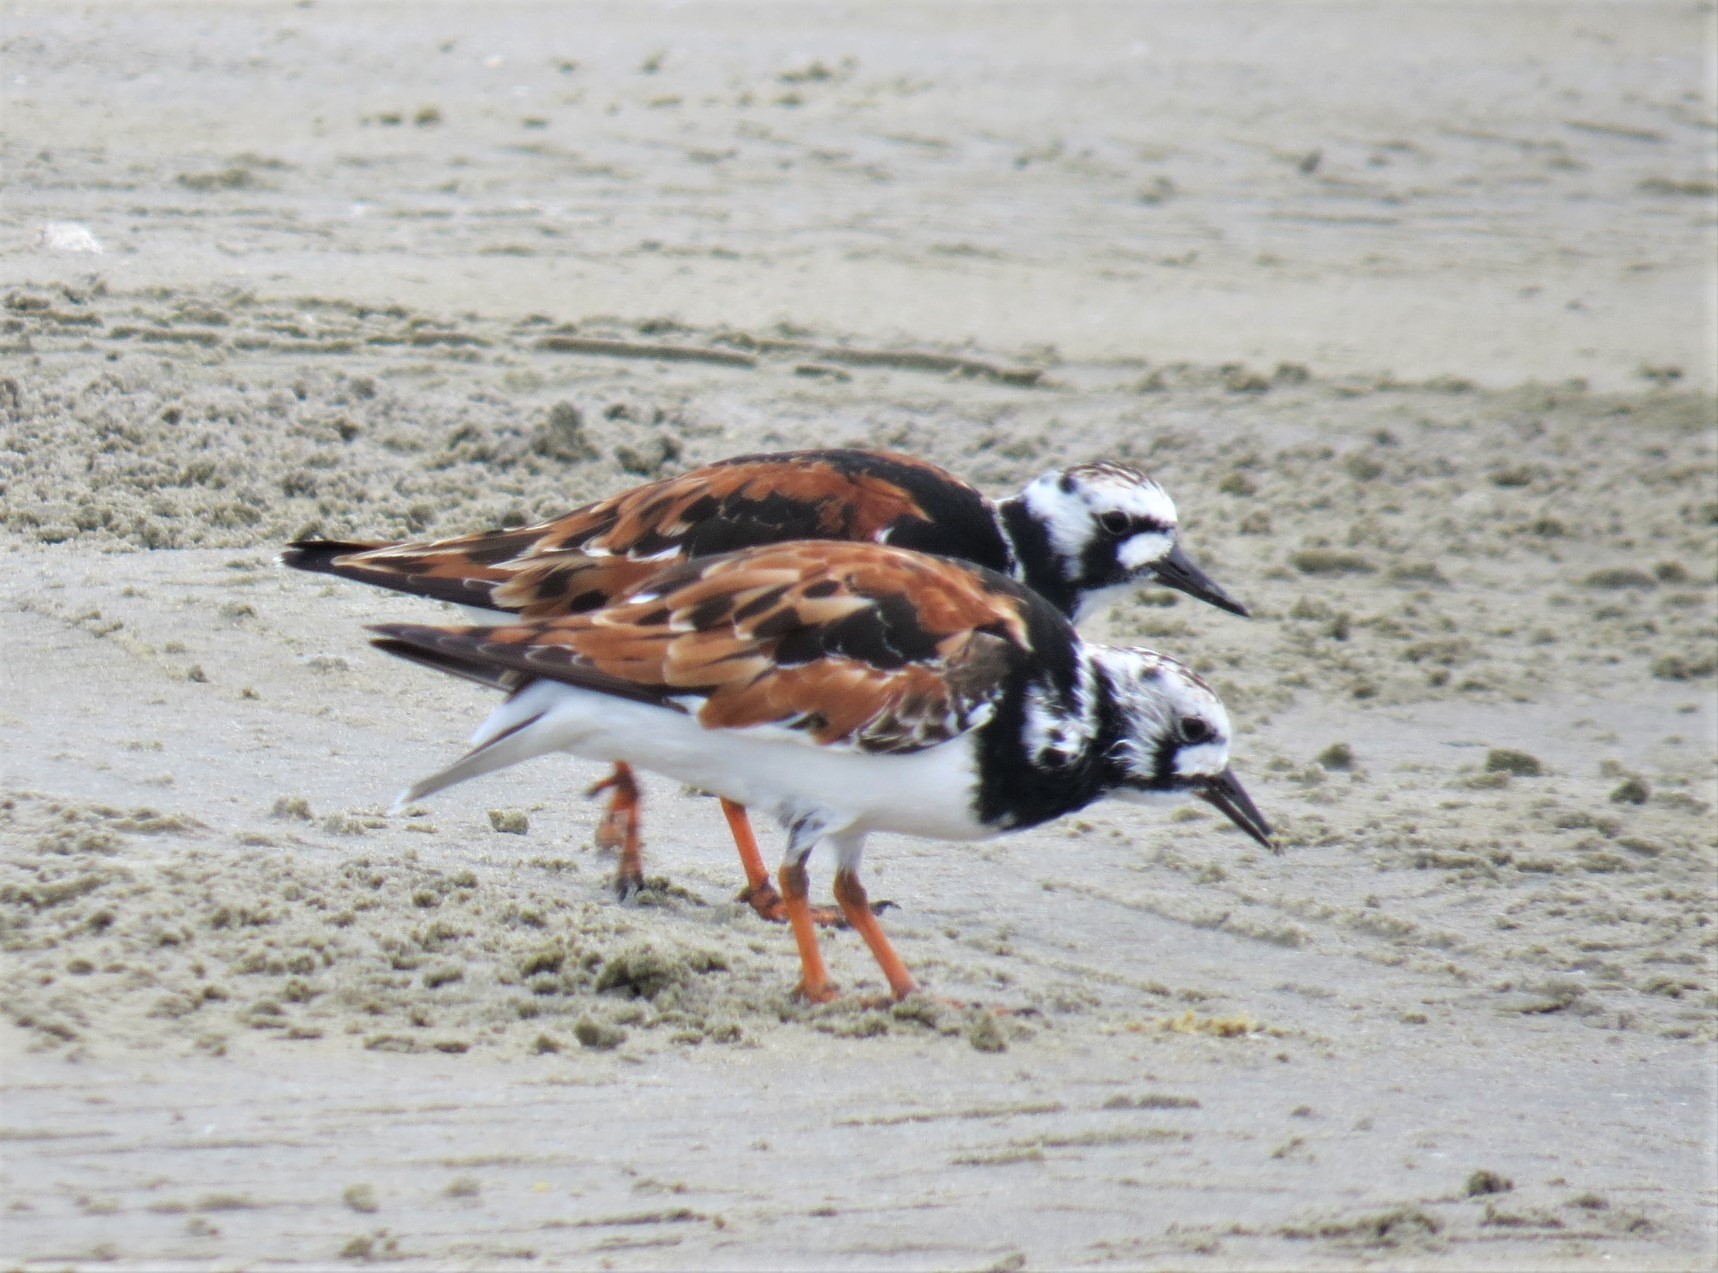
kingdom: Animalia
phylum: Chordata
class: Aves
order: Charadriiformes
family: Scolopacidae
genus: Arenaria
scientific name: Arenaria interpres
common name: Ruddy turnstone
